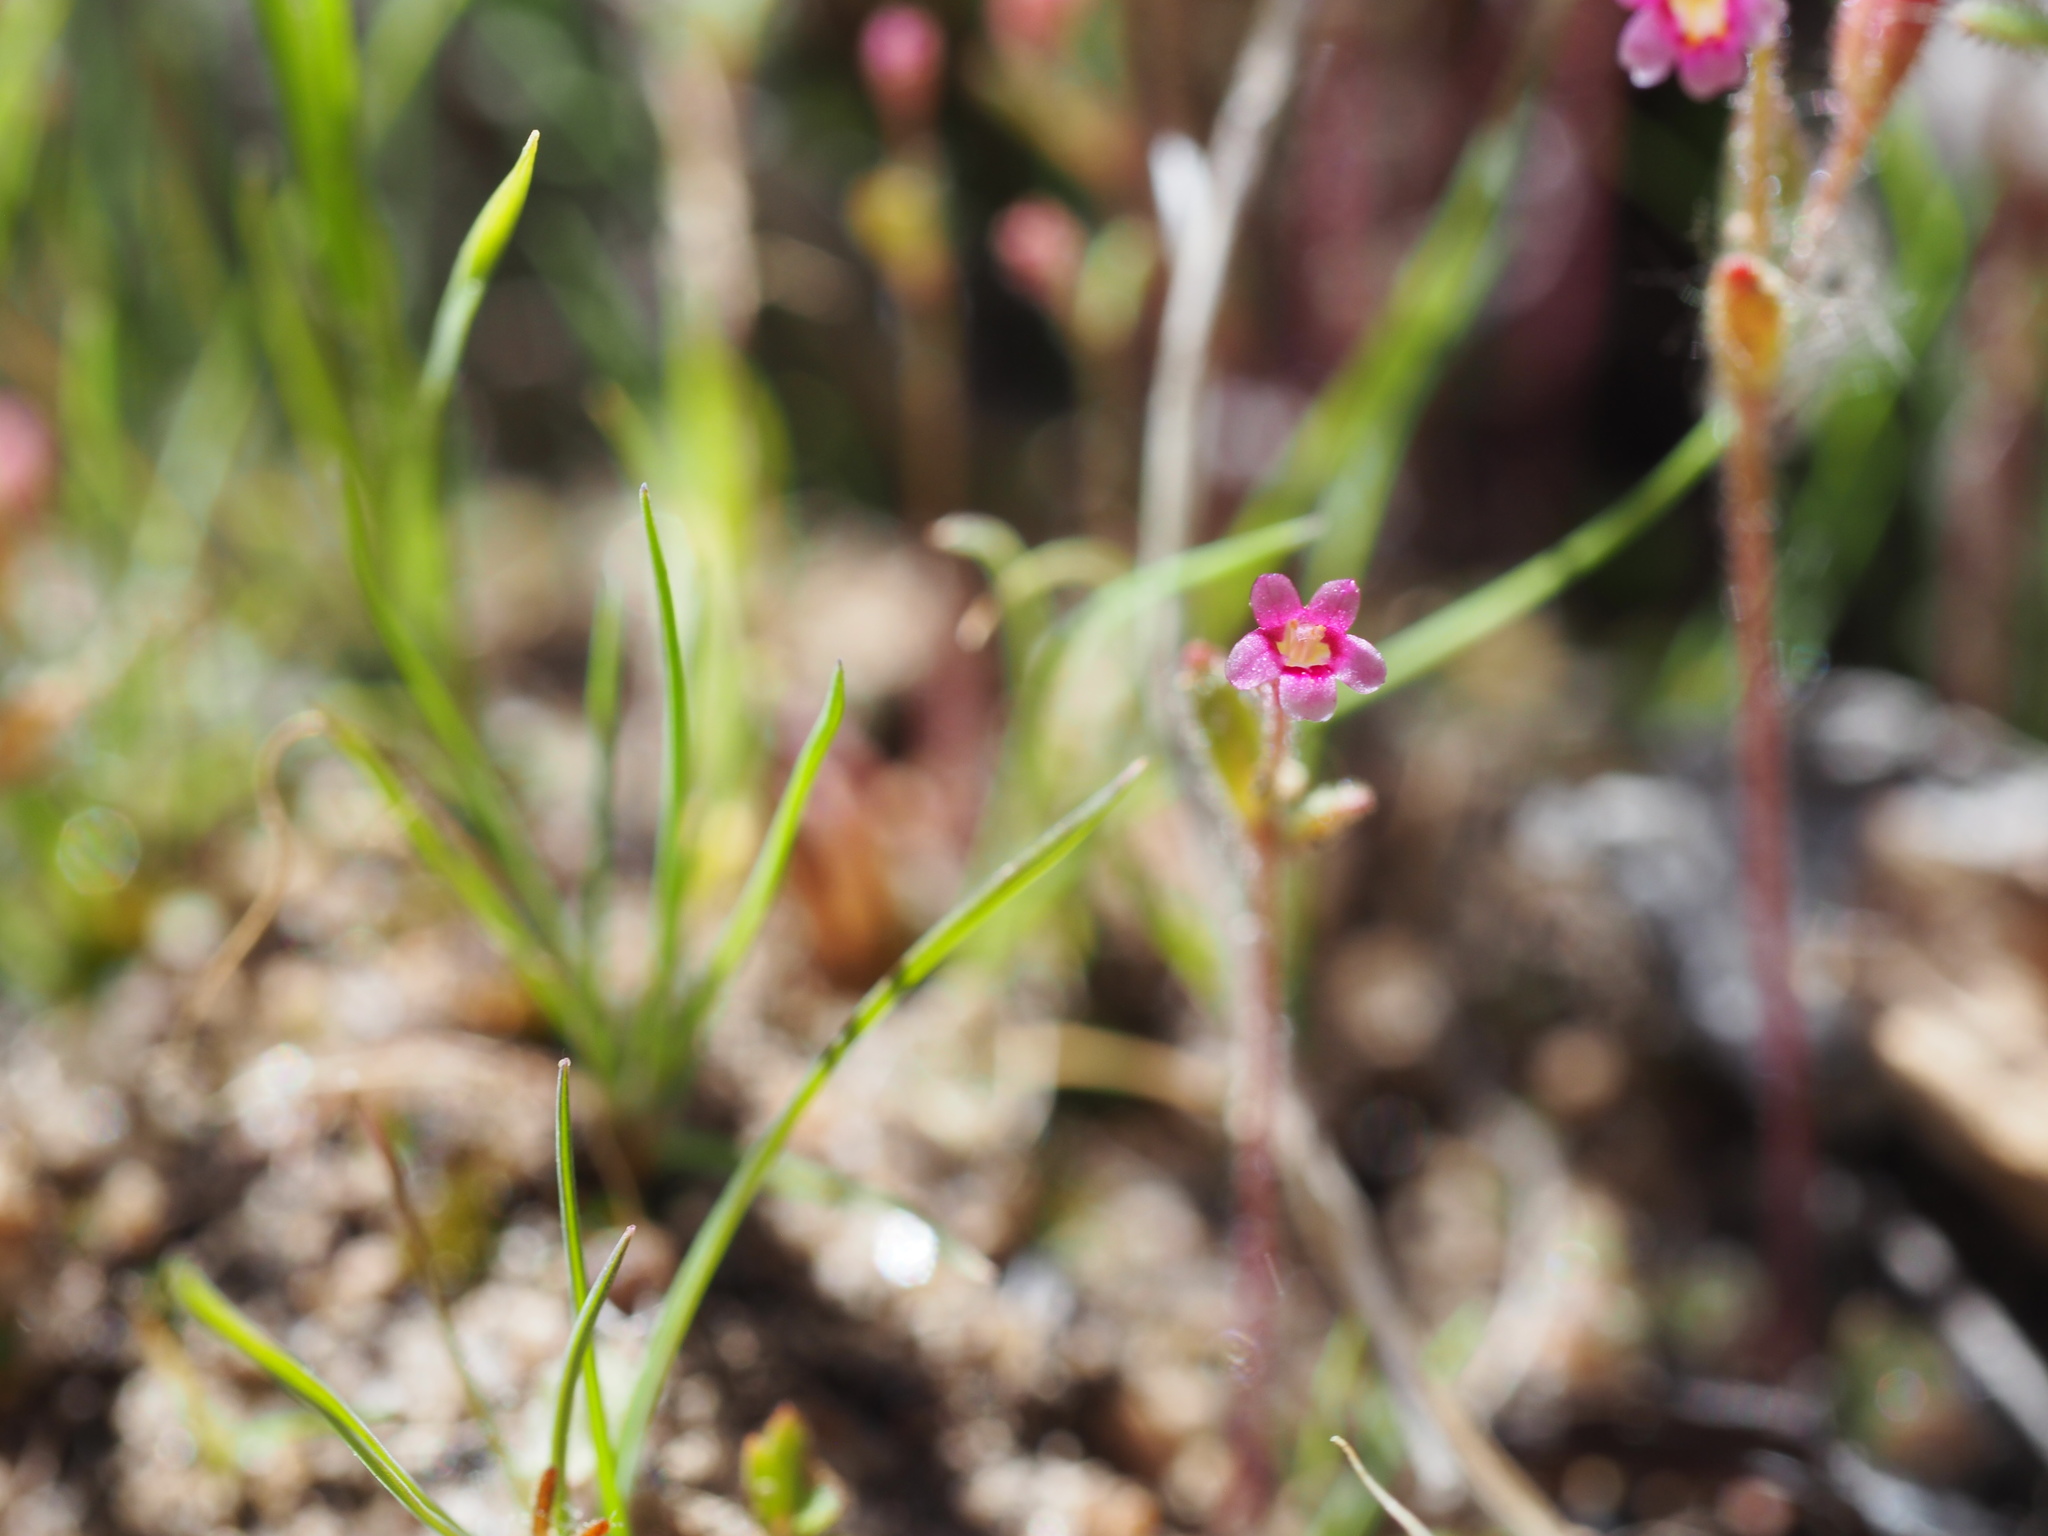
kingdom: Plantae
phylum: Tracheophyta
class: Magnoliopsida
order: Lamiales
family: Phrymaceae
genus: Erythranthe
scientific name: Erythranthe breweri
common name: Brewer's monkeyflower
